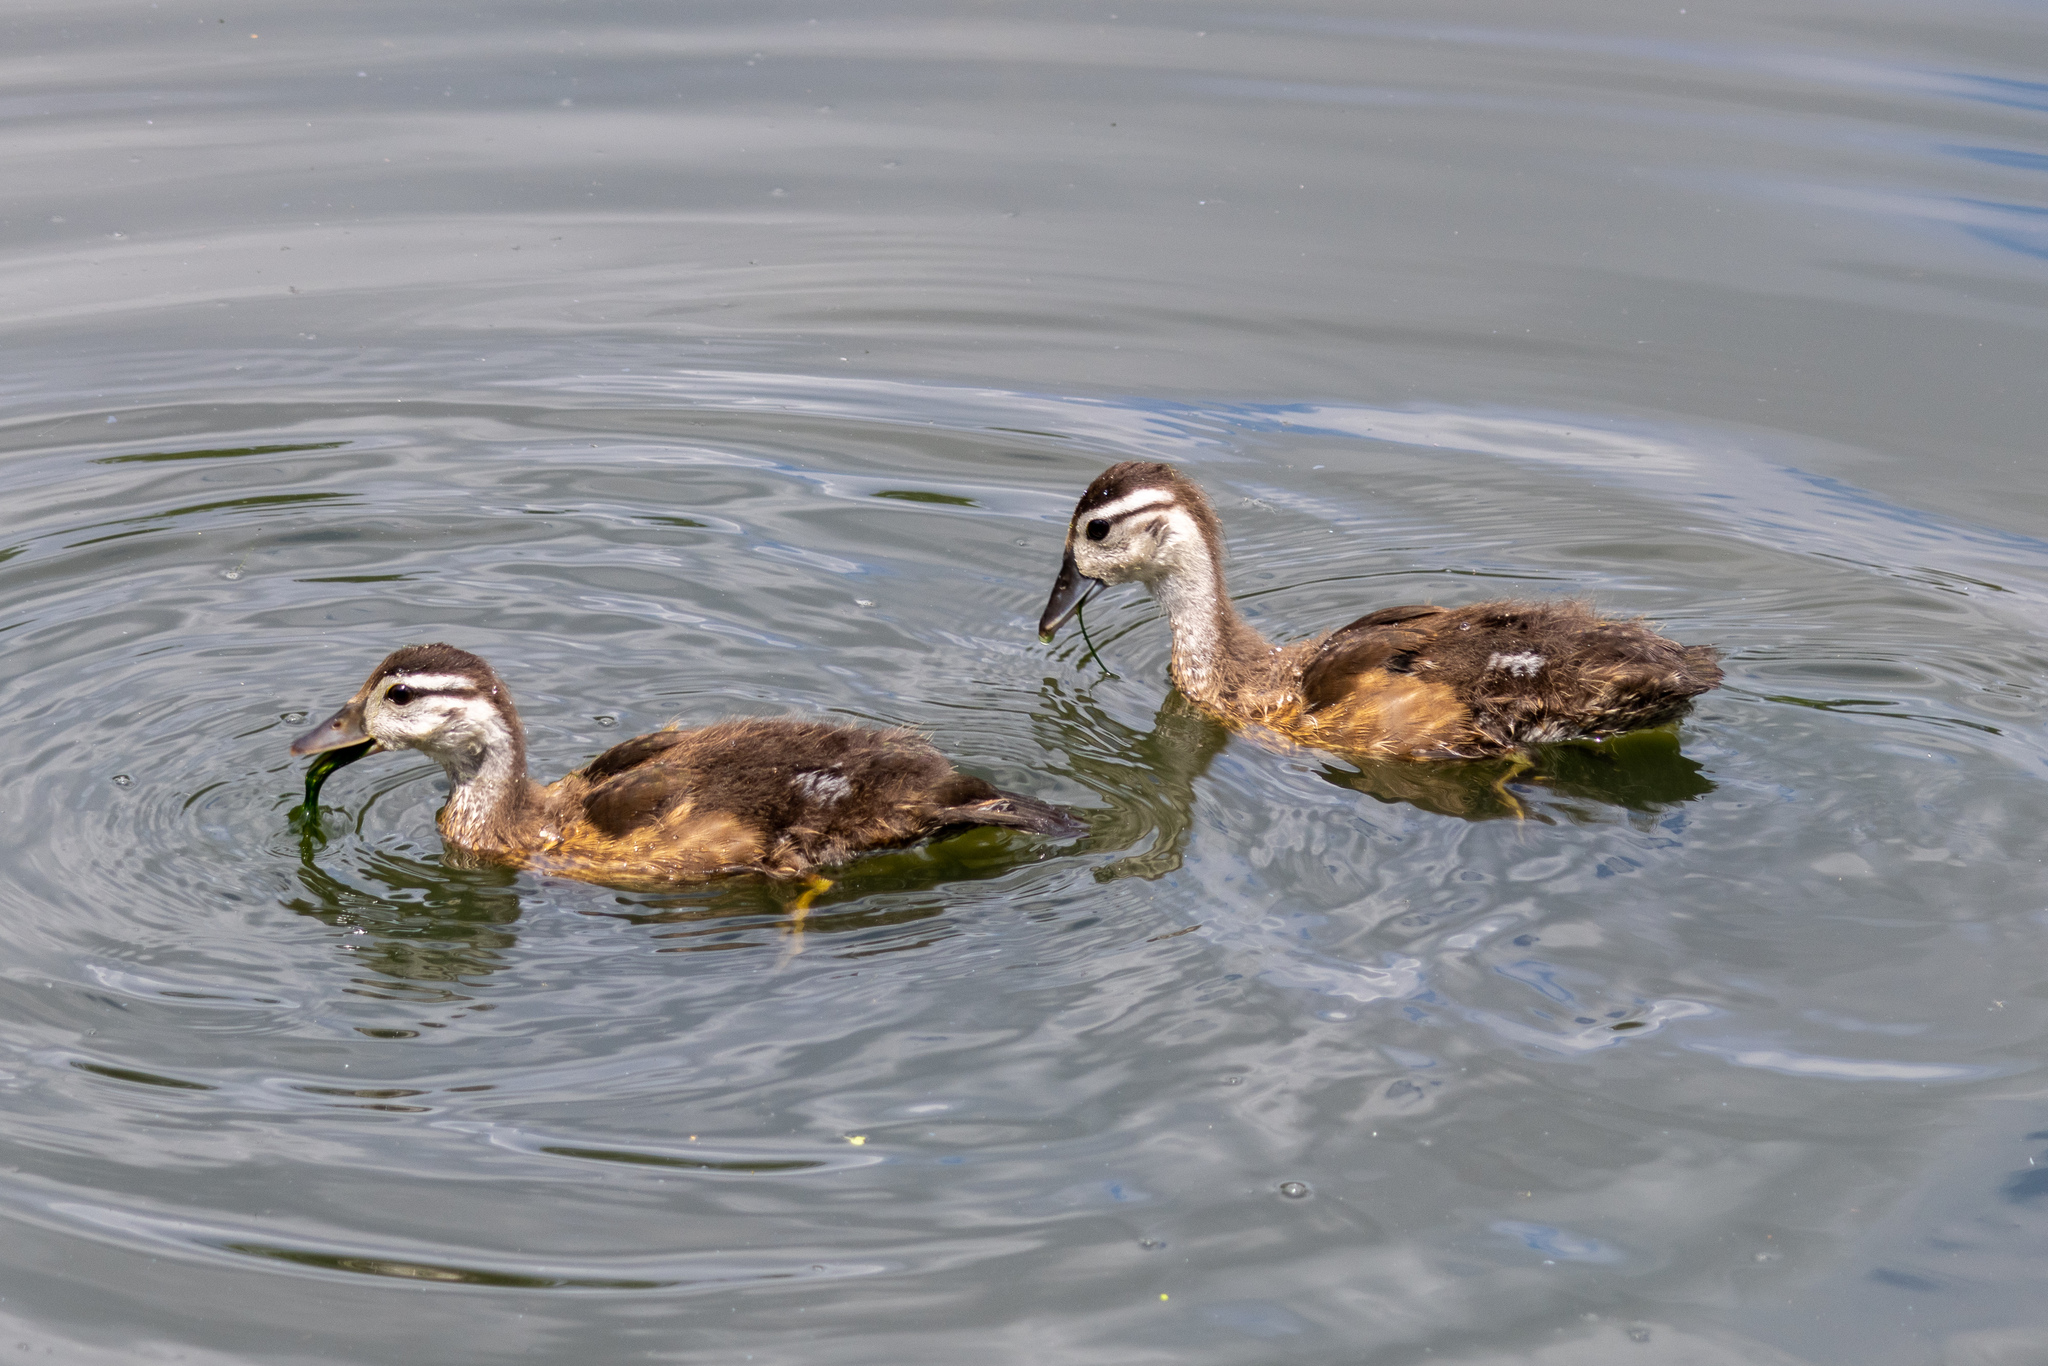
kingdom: Animalia
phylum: Chordata
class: Aves
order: Anseriformes
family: Anatidae
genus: Aix
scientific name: Aix sponsa
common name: Wood duck
